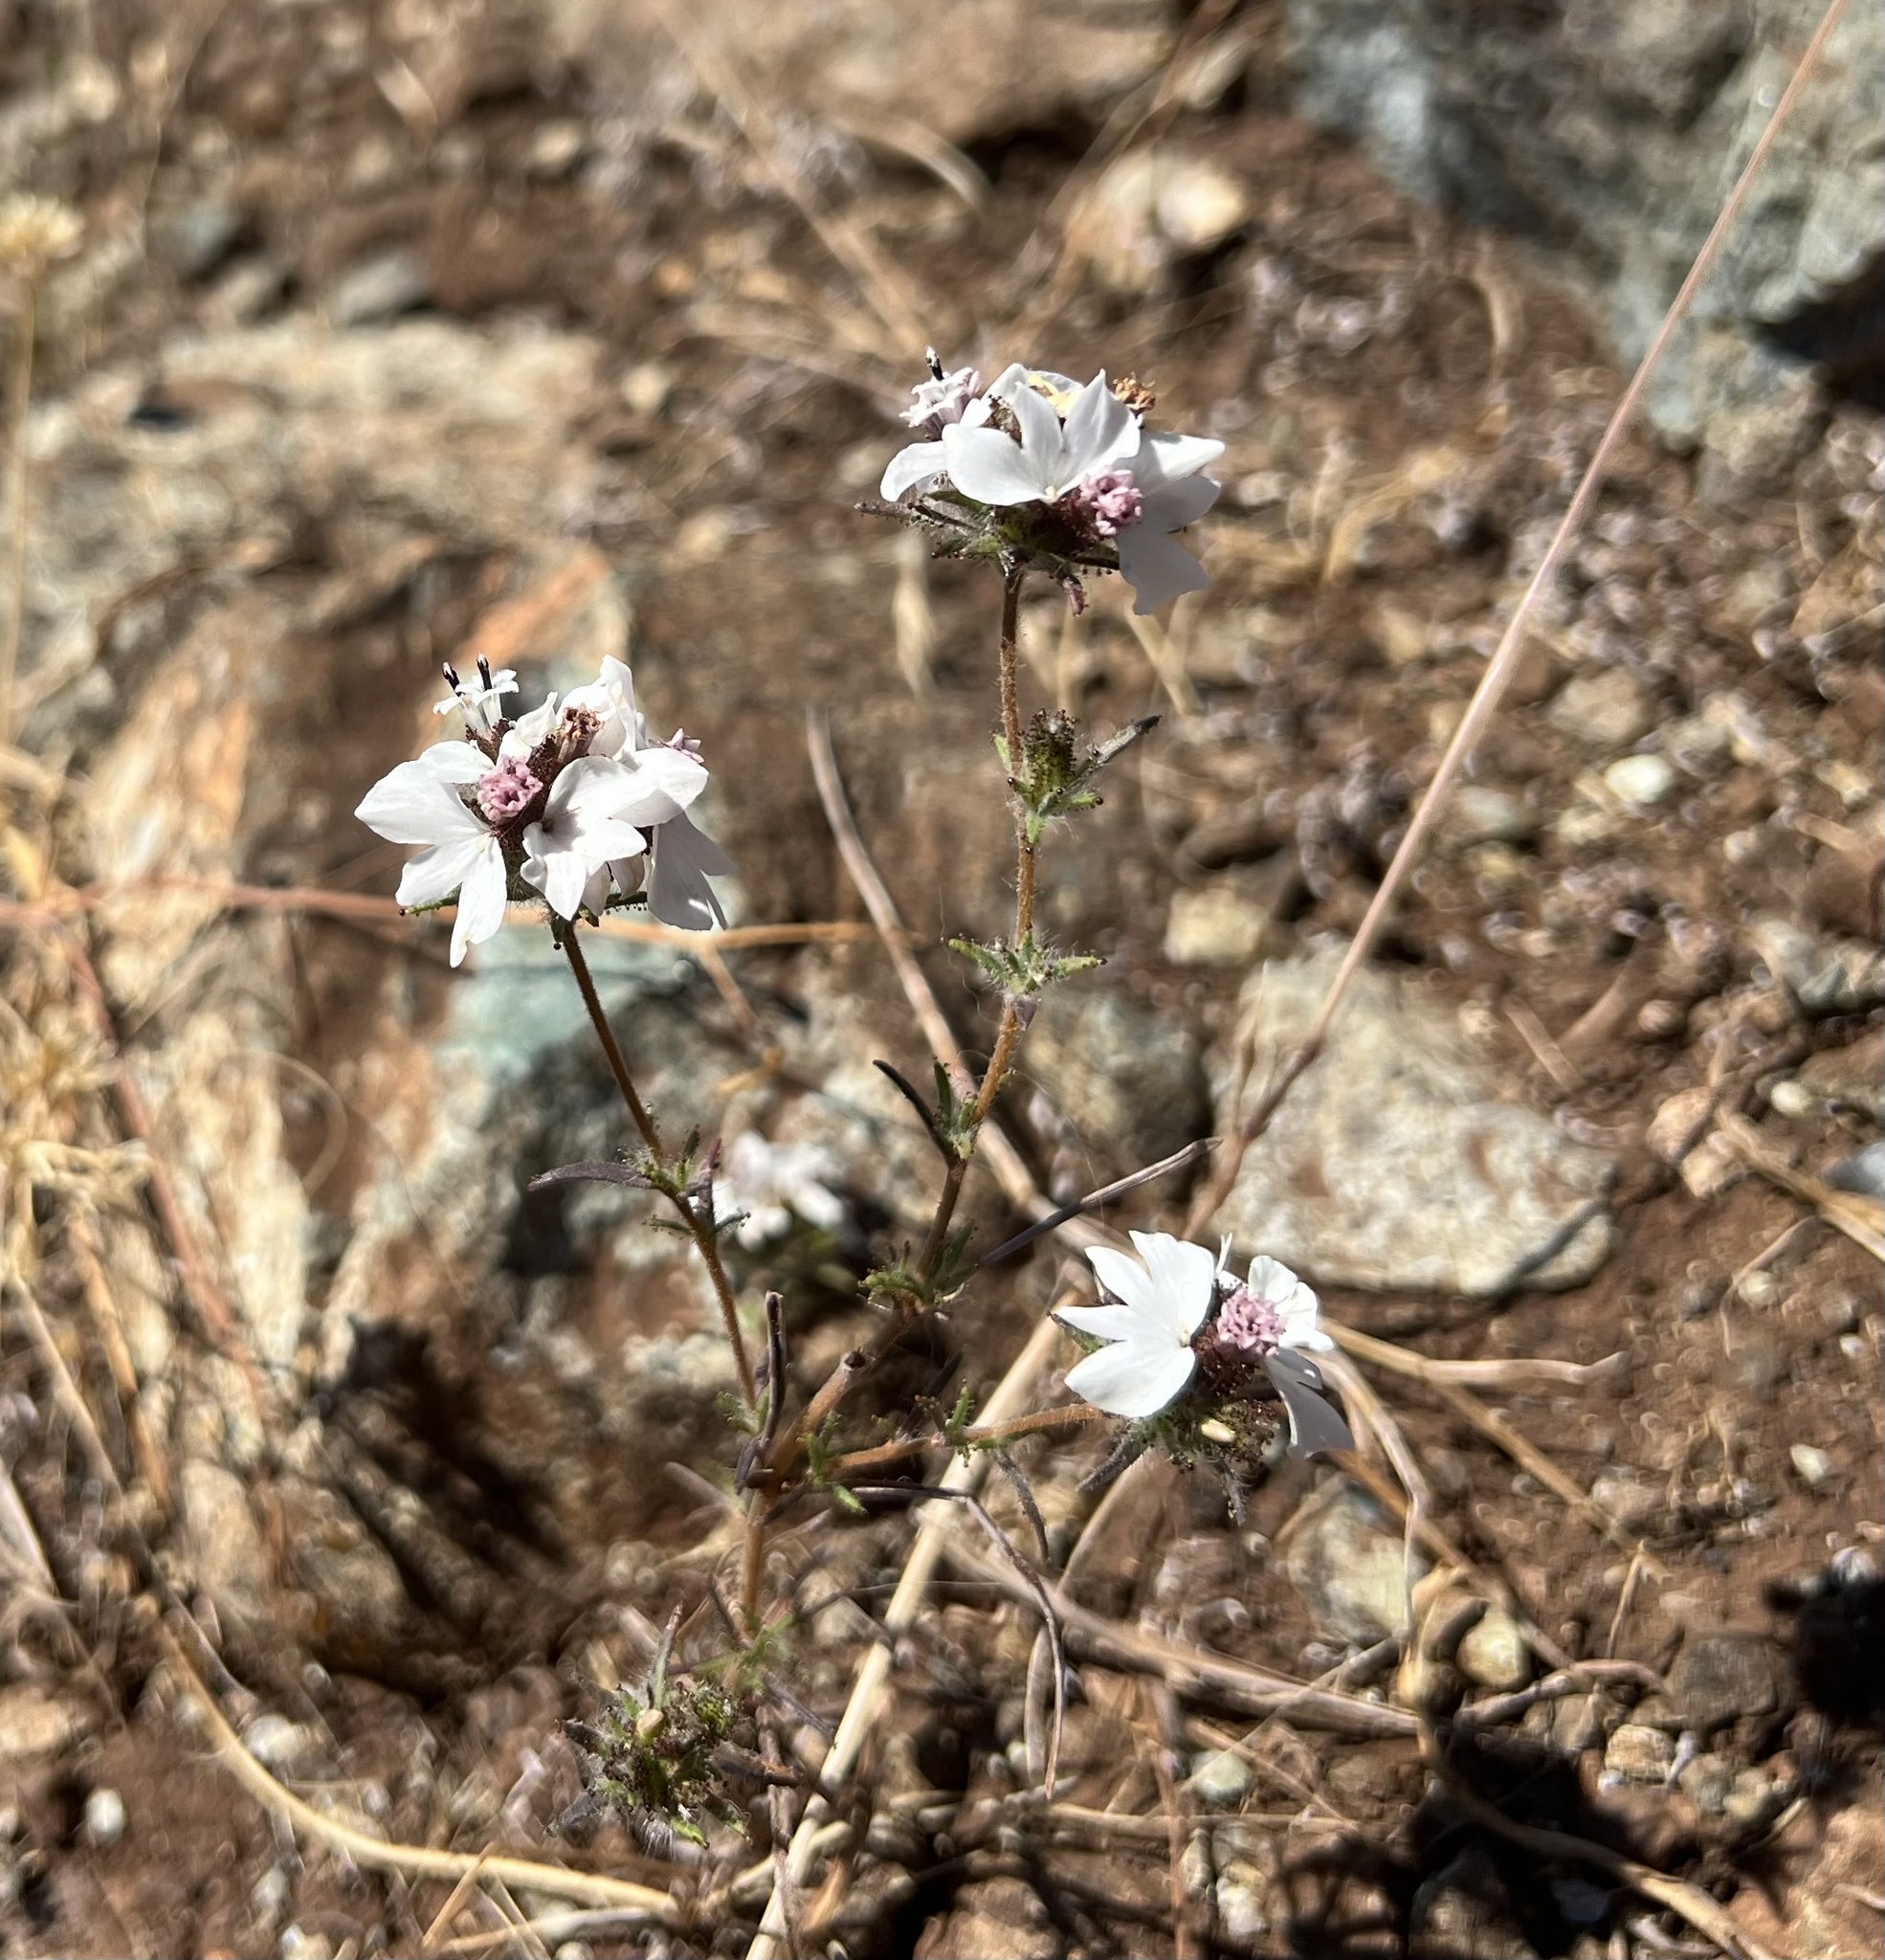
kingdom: Plantae
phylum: Tracheophyta
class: Magnoliopsida
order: Asterales
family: Asteraceae
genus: Calycadenia
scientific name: Calycadenia multiglandulosa
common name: Sticky calycadenia
